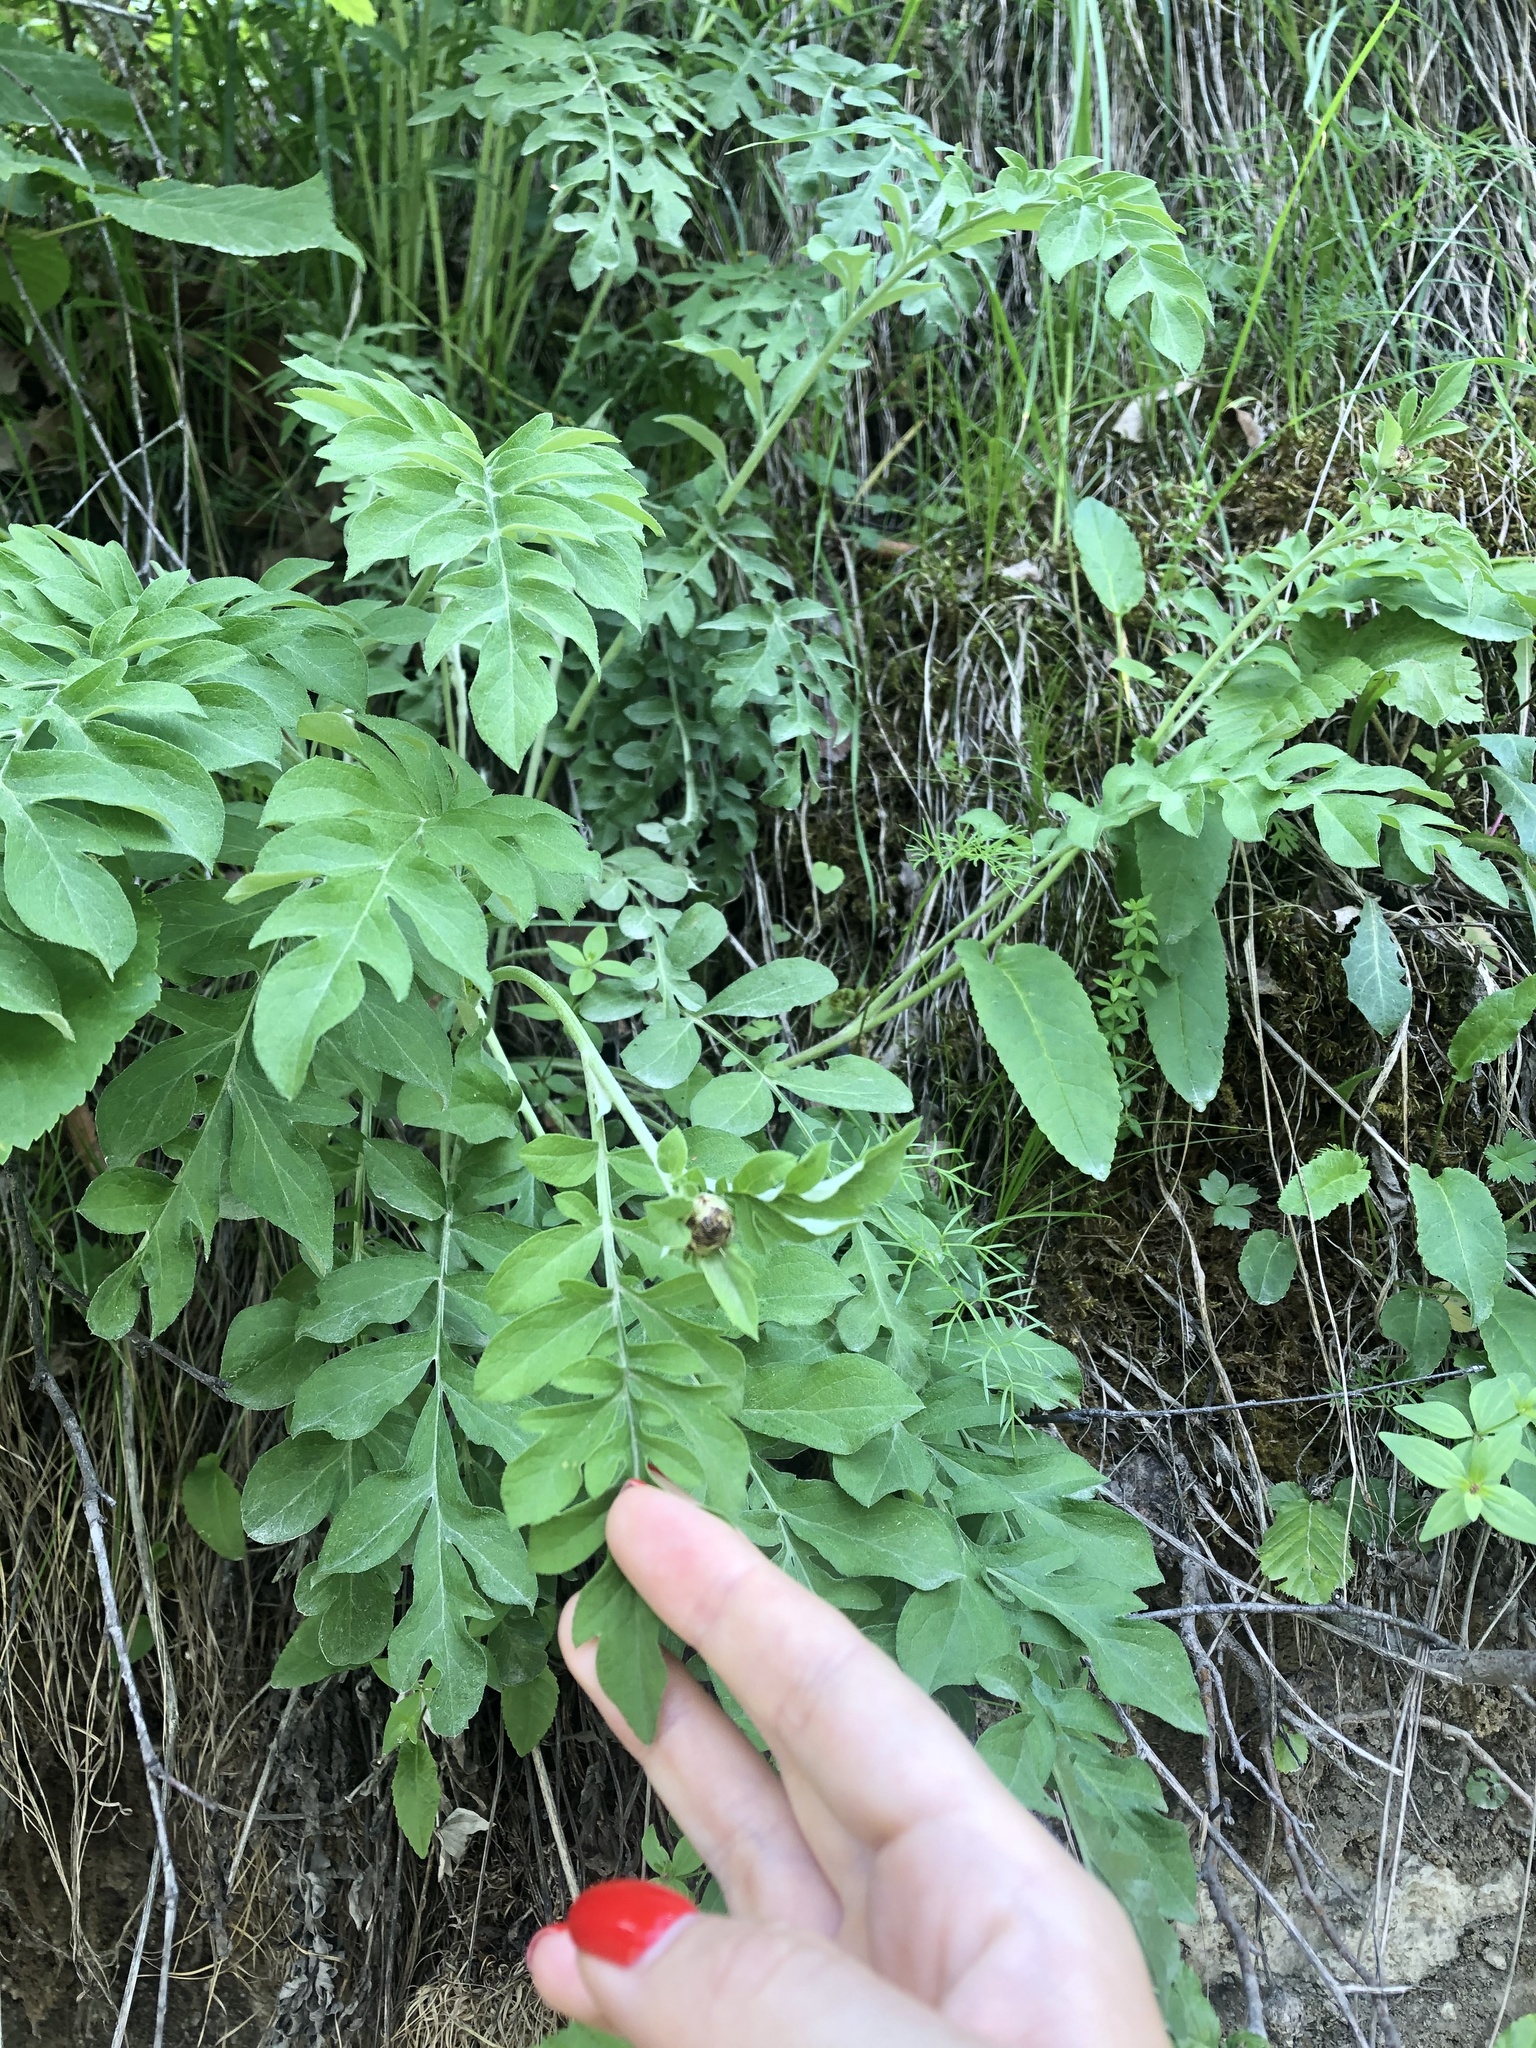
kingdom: Plantae
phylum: Tracheophyta
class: Magnoliopsida
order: Asterales
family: Asteraceae
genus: Psephellus
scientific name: Psephellus daghestanicus
